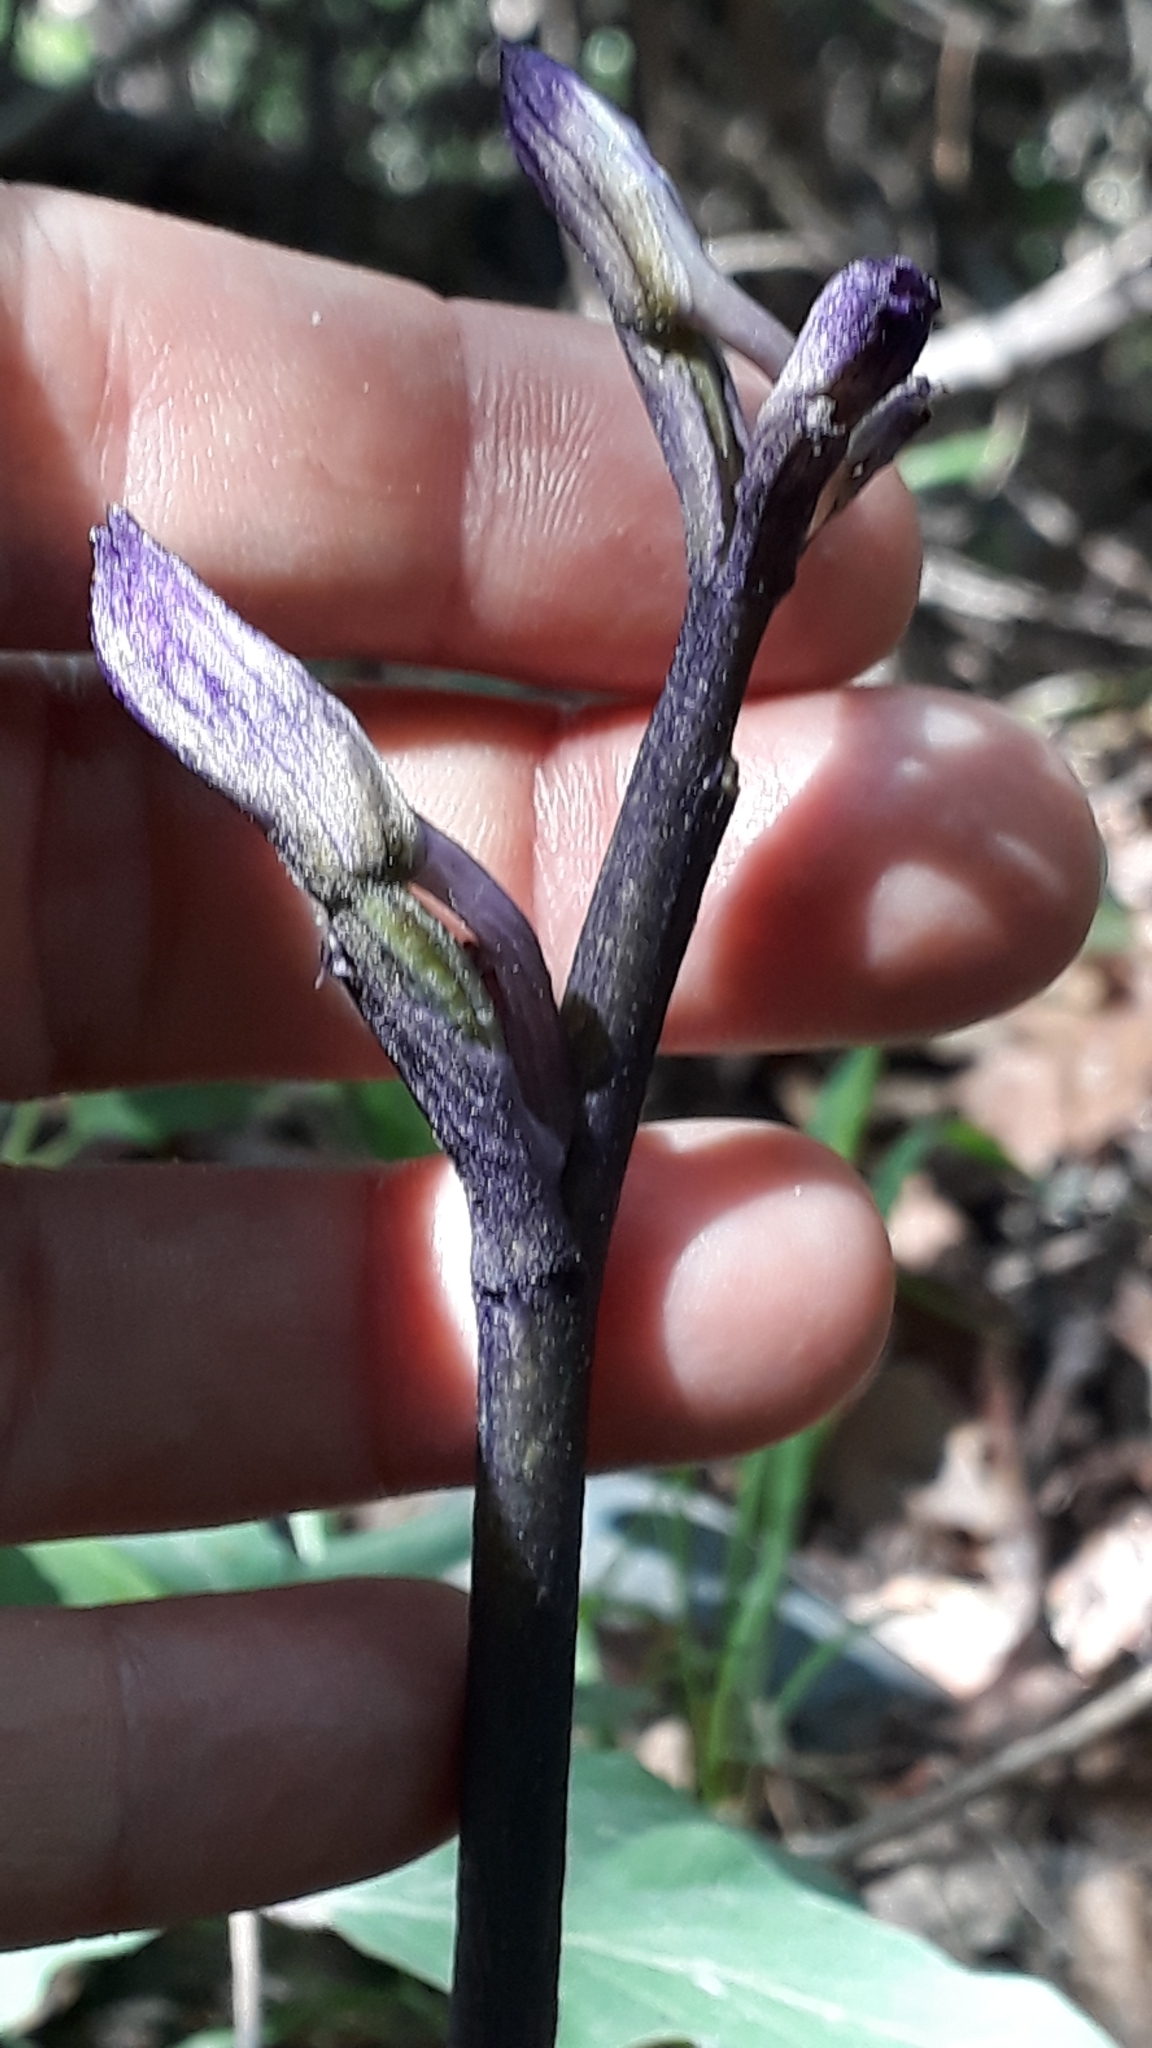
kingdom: Plantae
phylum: Tracheophyta
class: Liliopsida
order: Asparagales
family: Orchidaceae
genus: Limodorum
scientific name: Limodorum abortivum
